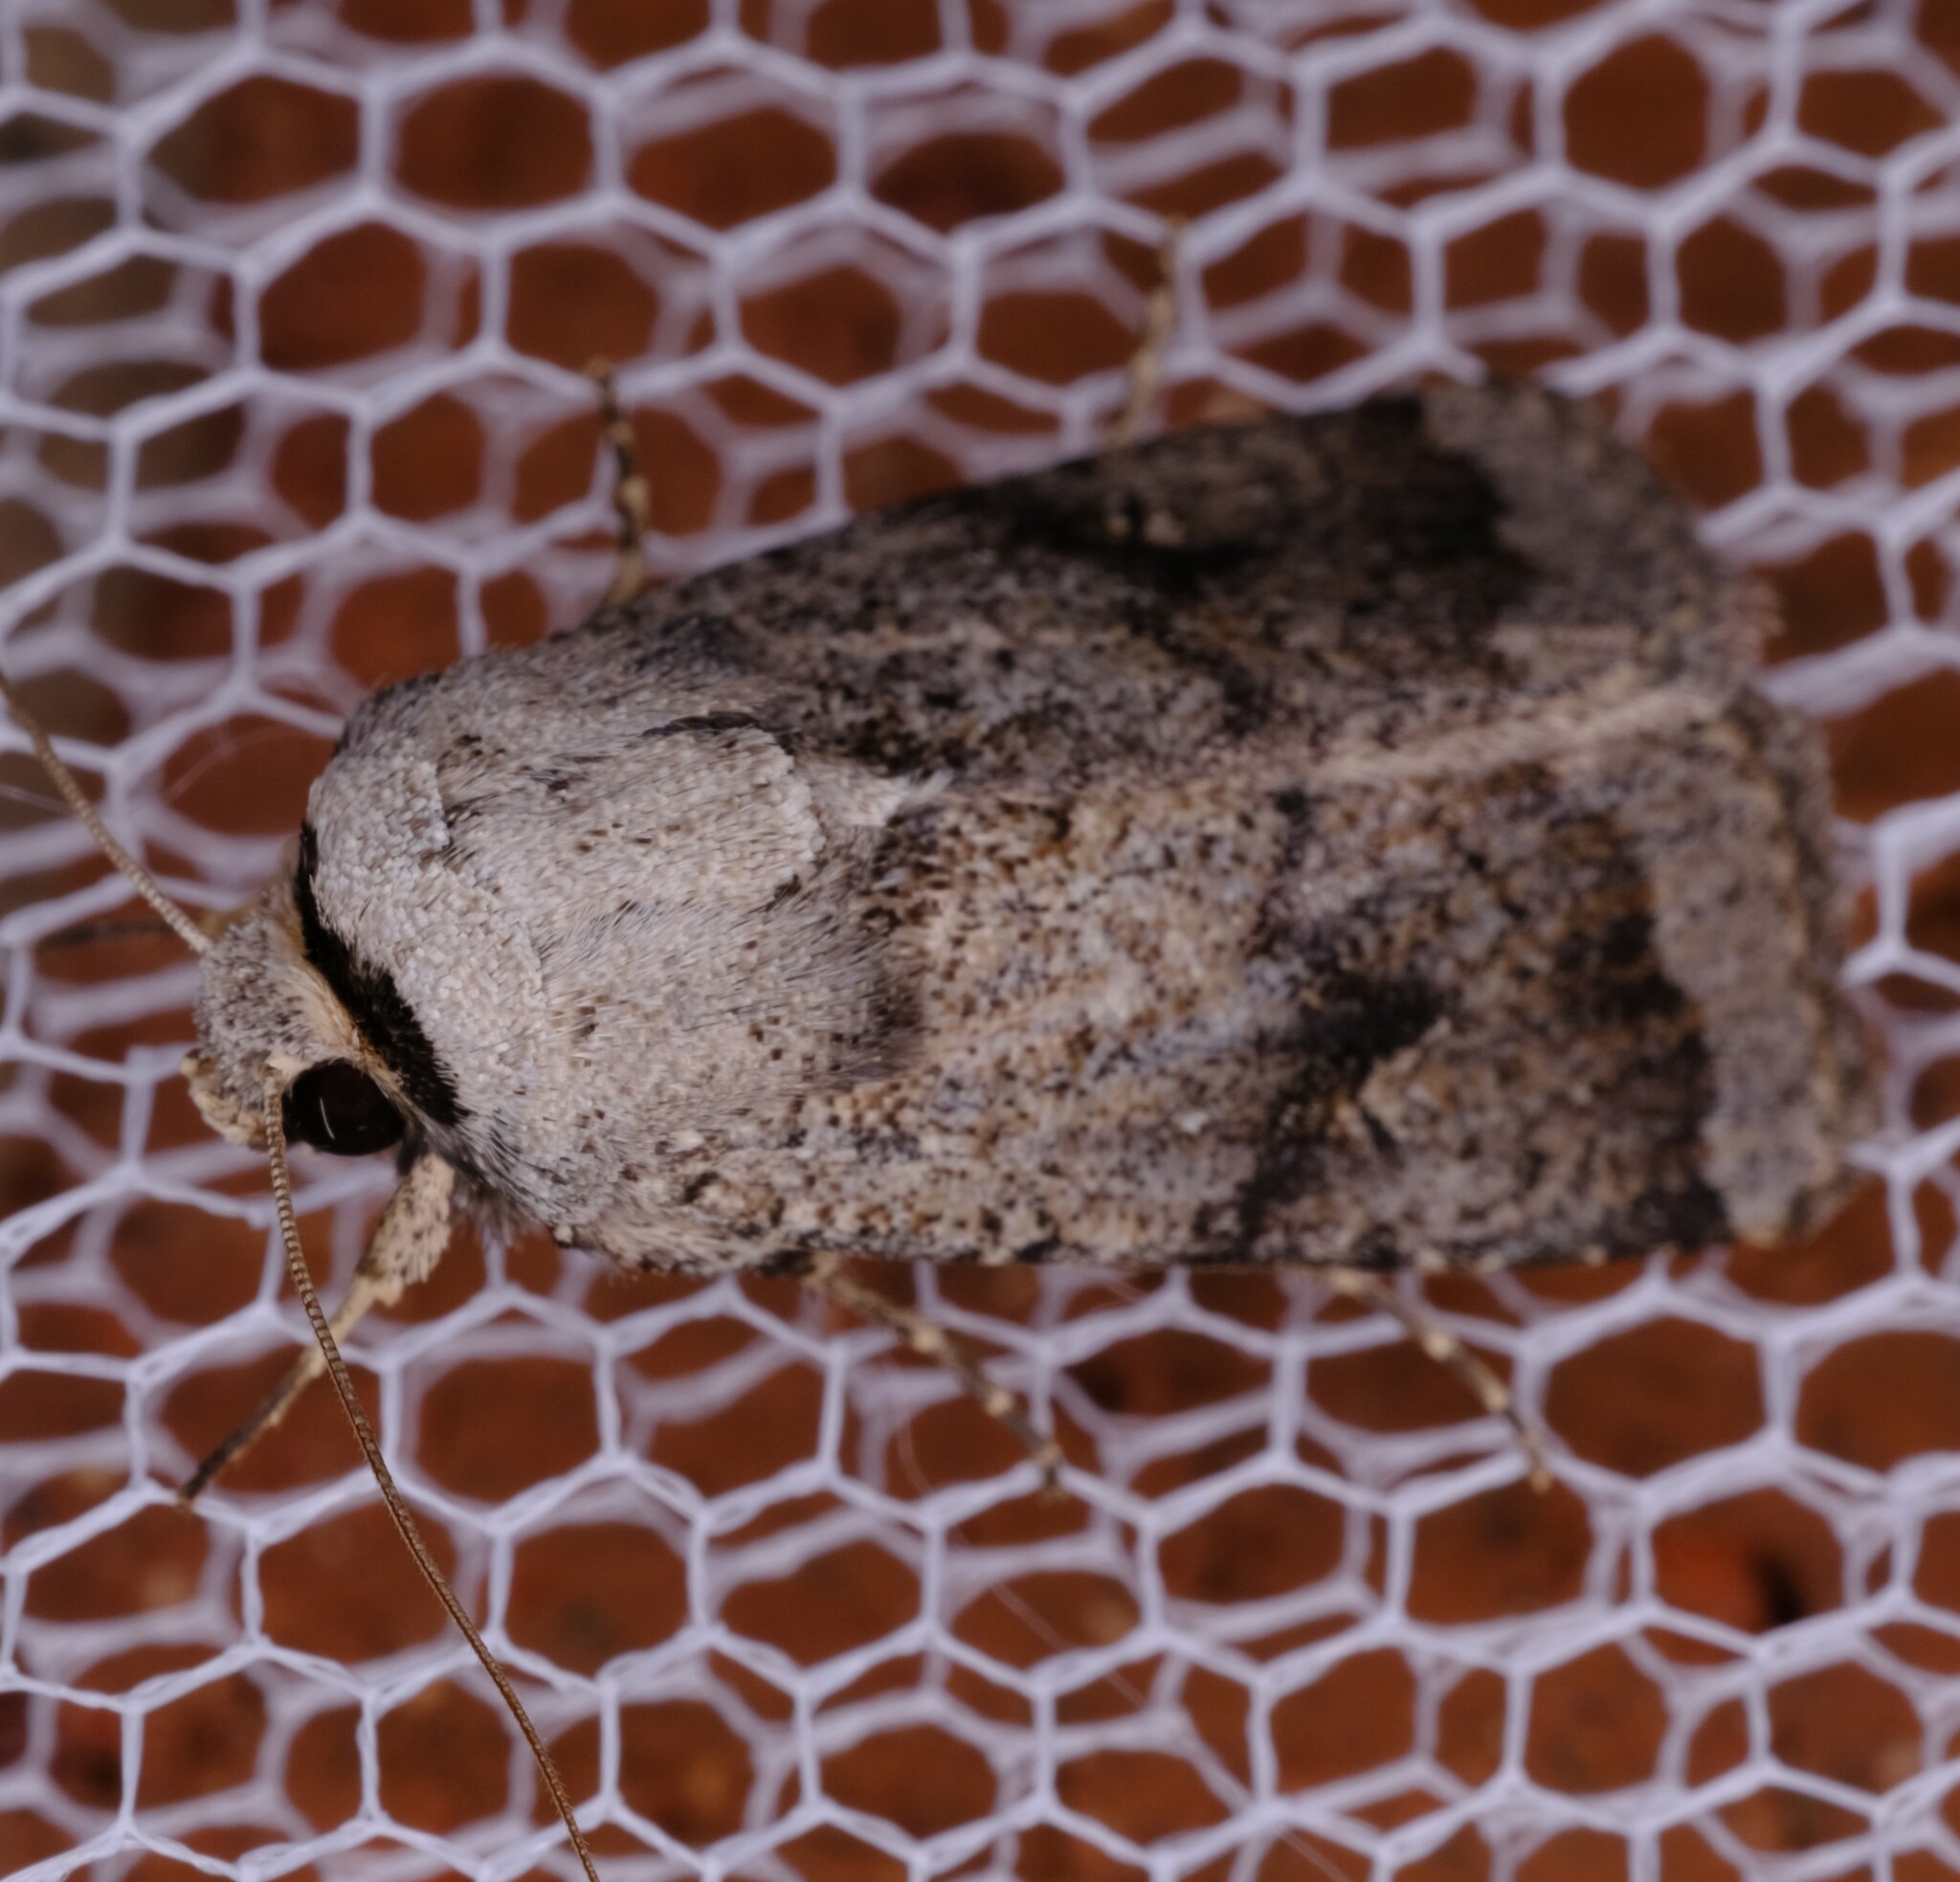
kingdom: Animalia
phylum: Arthropoda
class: Insecta
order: Lepidoptera
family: Noctuidae
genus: Proteuxoa
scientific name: Proteuxoa amaurodes
